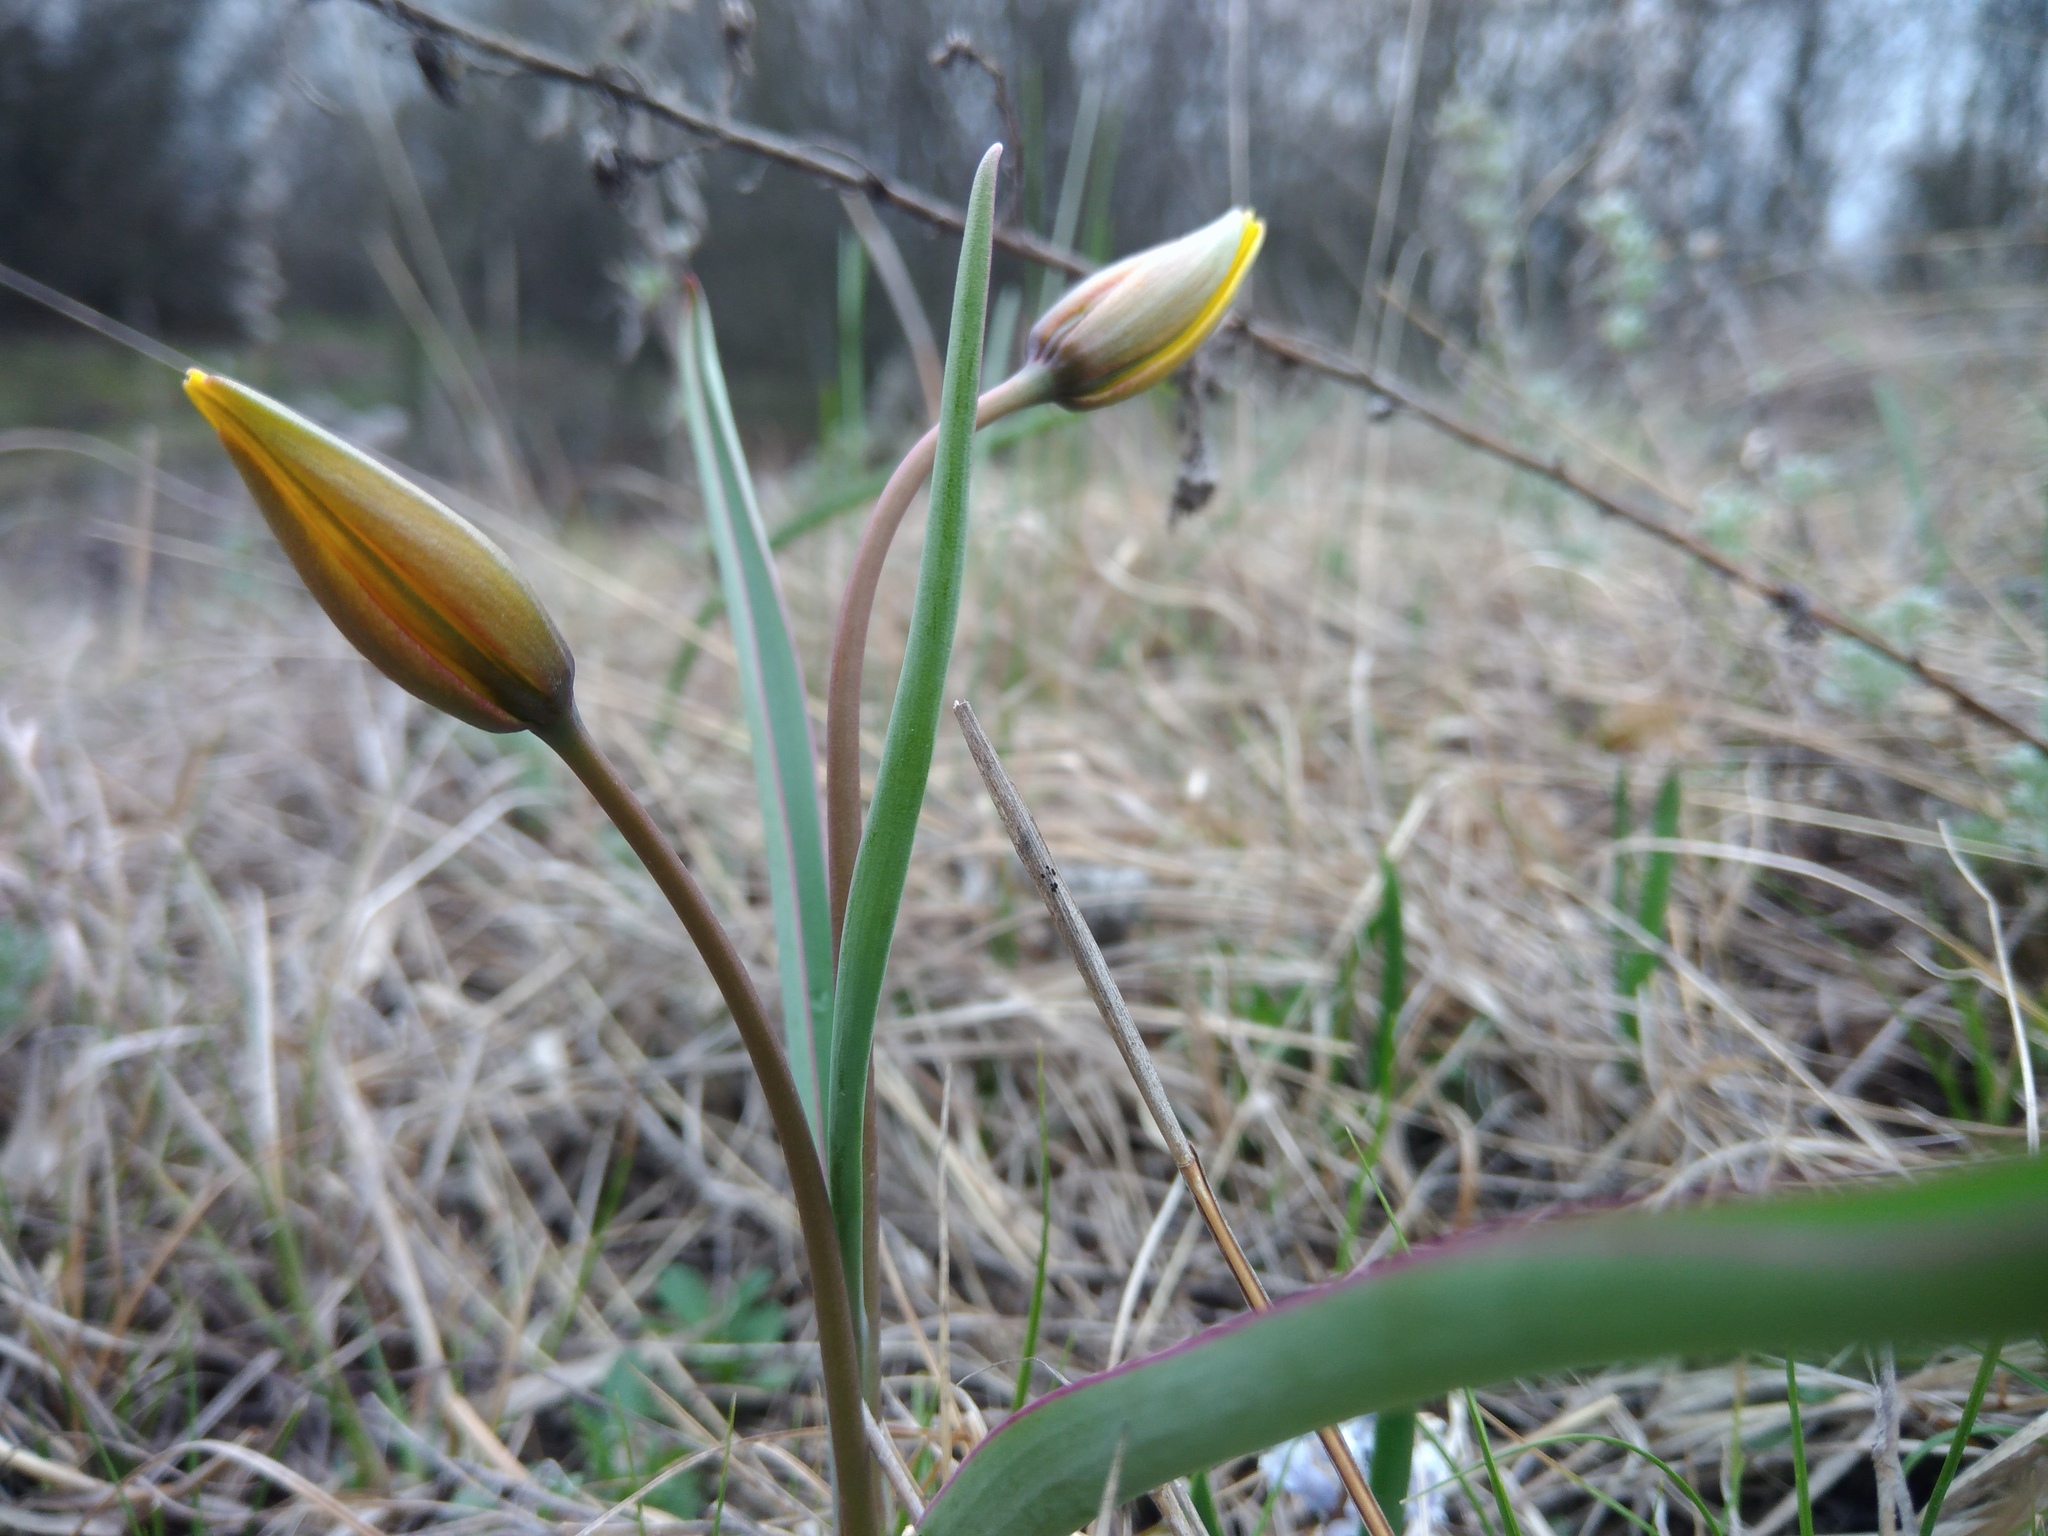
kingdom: Plantae
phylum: Tracheophyta
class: Liliopsida
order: Liliales
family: Liliaceae
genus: Tulipa
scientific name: Tulipa sylvestris
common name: Wild tulip
